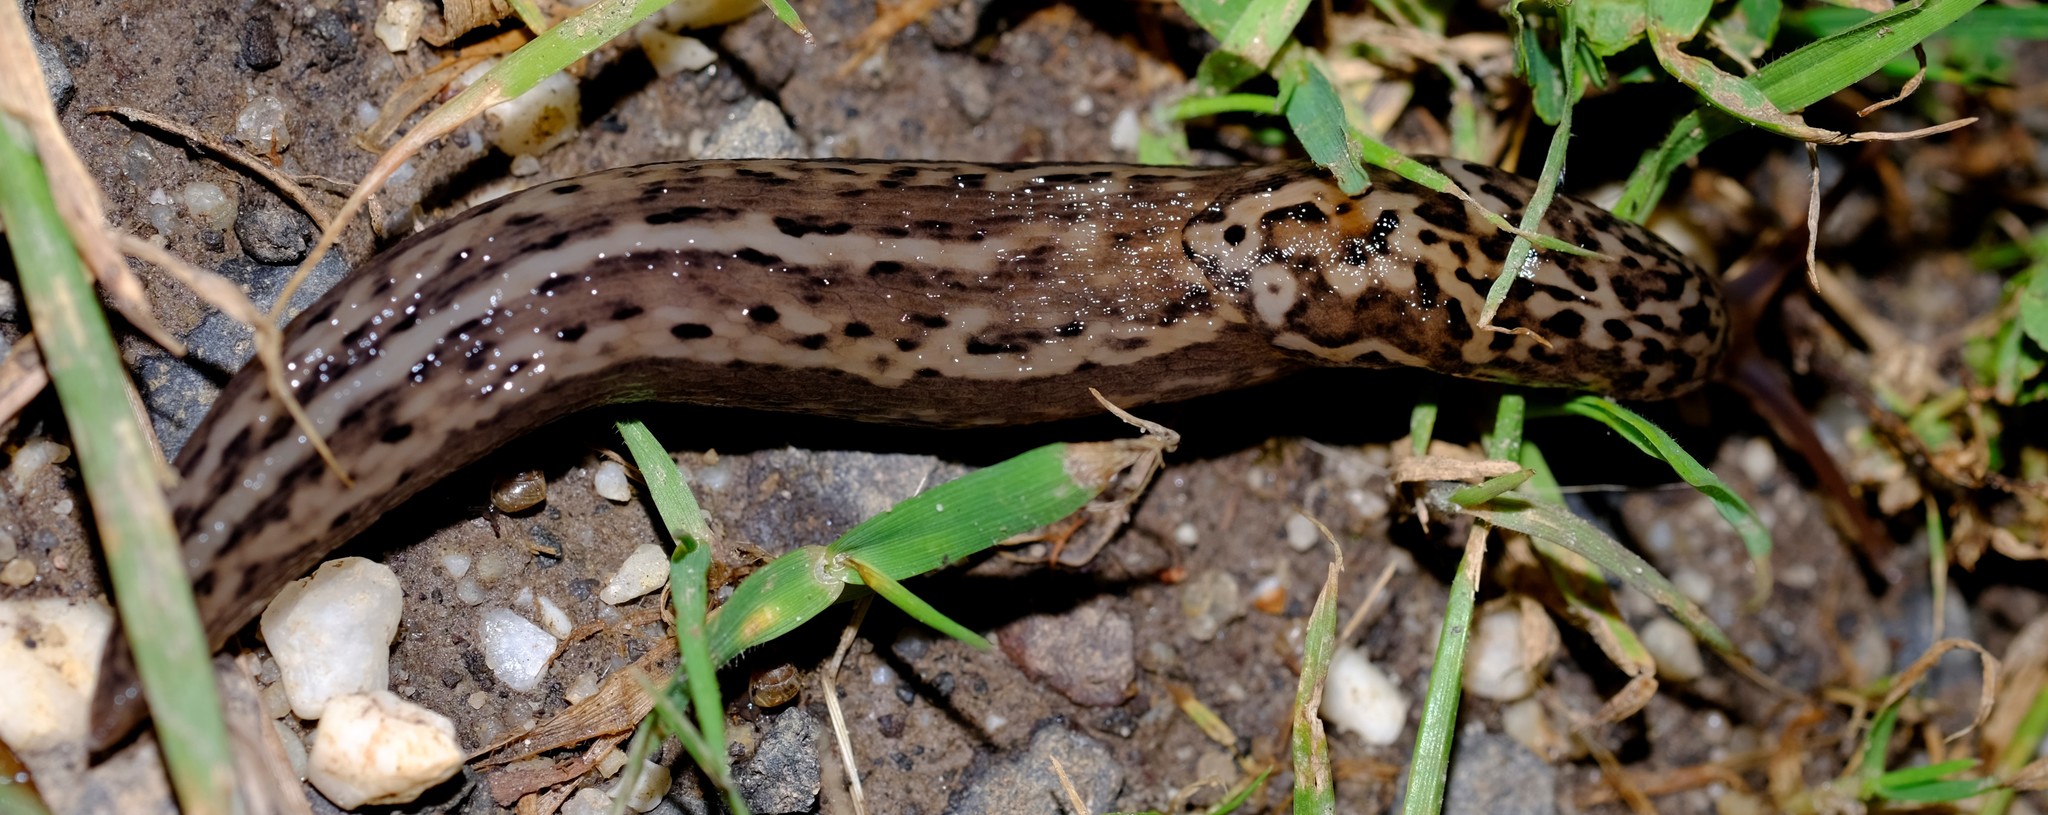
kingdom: Animalia
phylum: Mollusca
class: Gastropoda
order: Stylommatophora
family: Limacidae
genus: Limax
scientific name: Limax maximus
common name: Great grey slug
